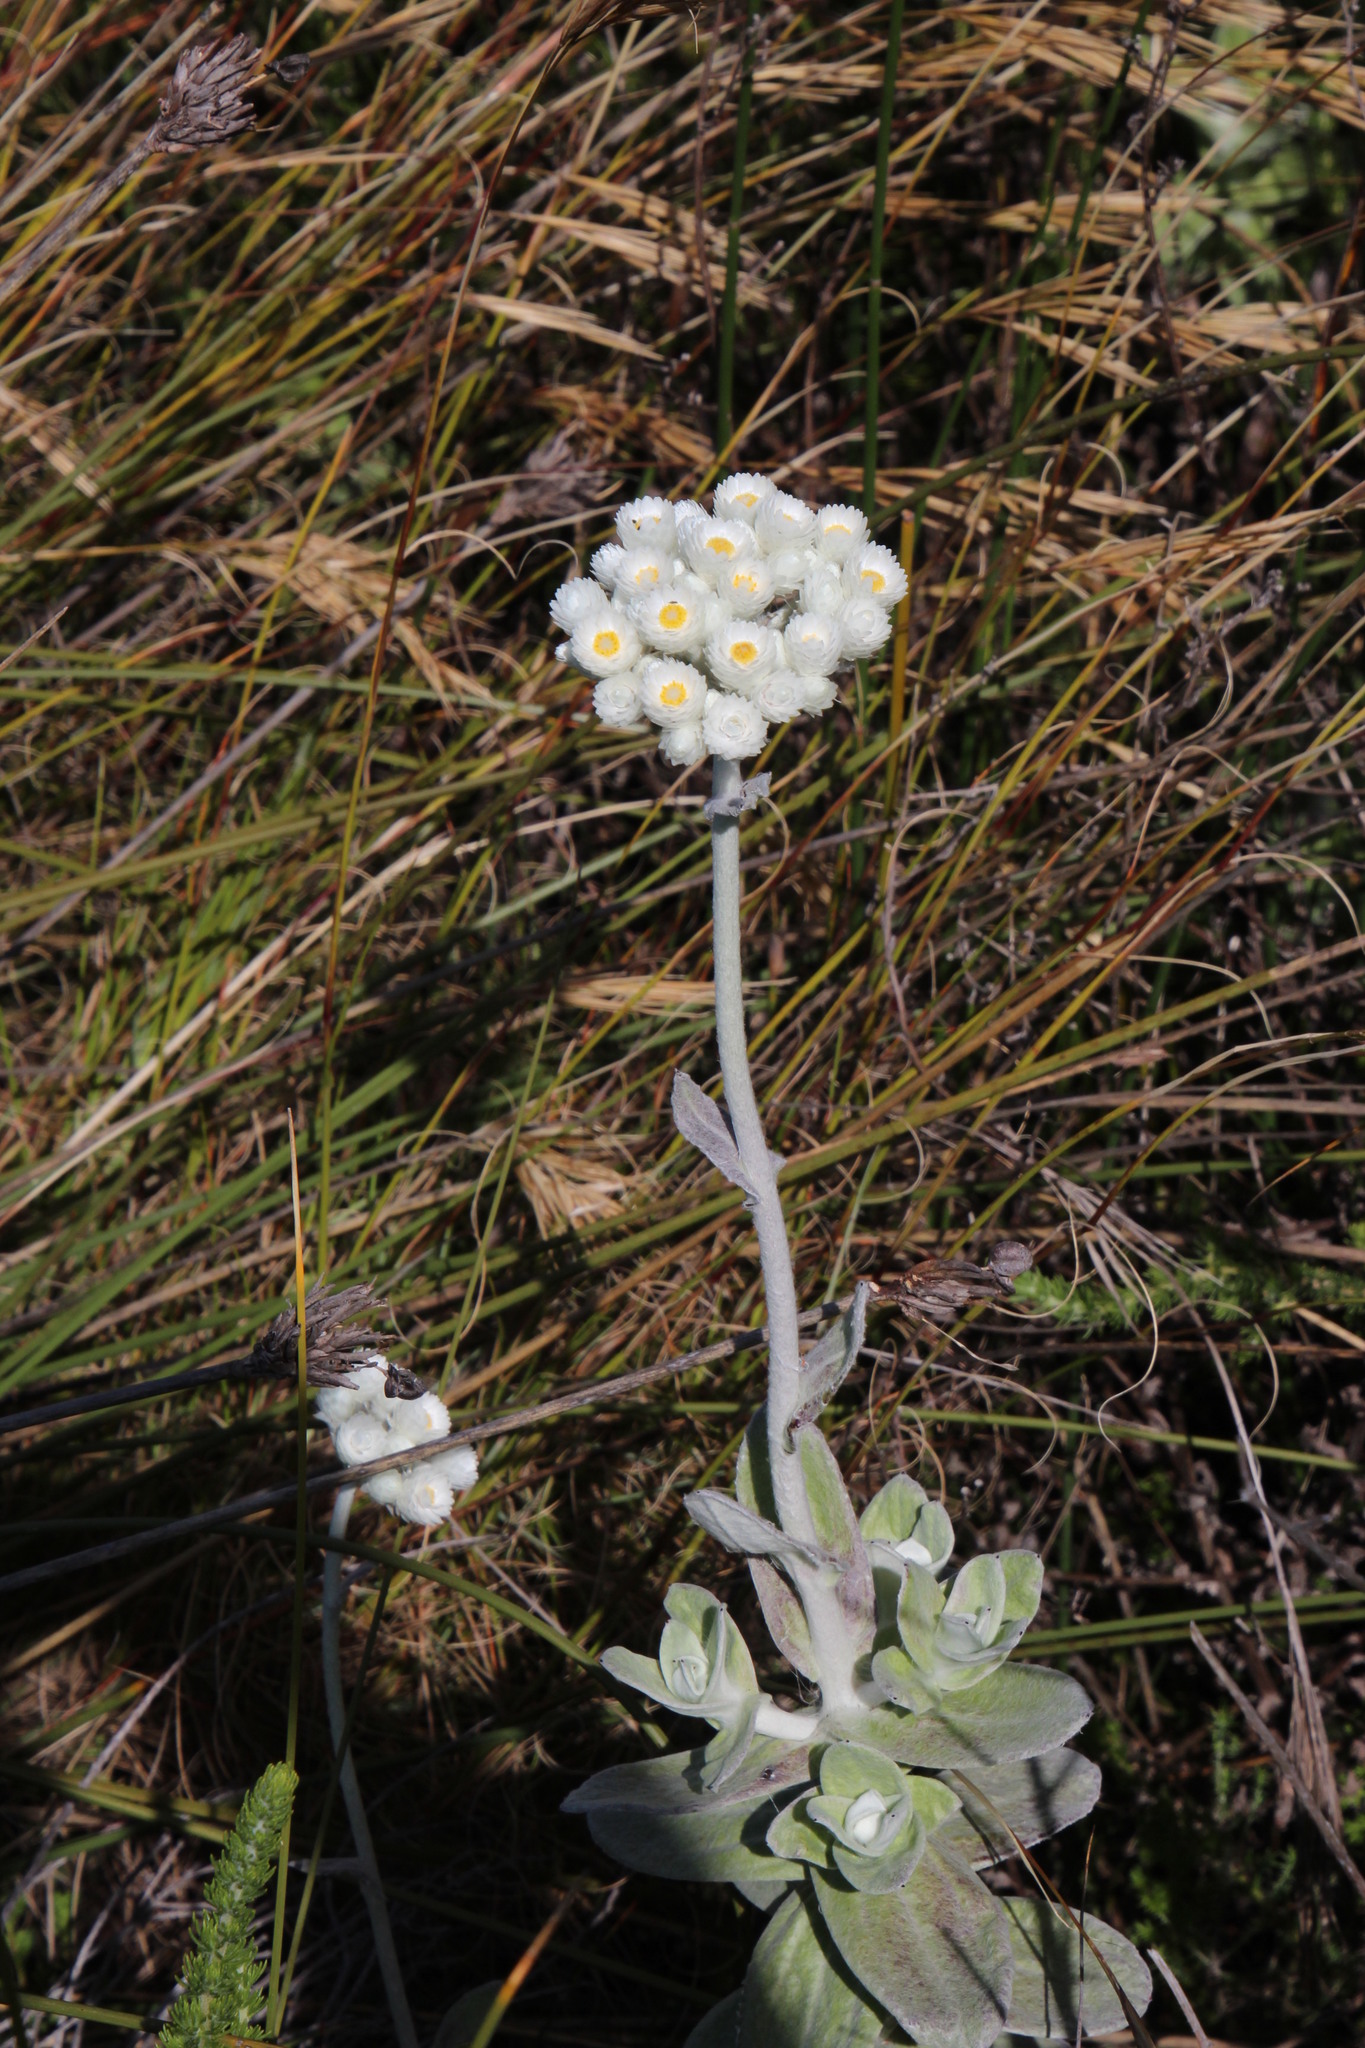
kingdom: Plantae
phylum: Tracheophyta
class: Magnoliopsida
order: Asterales
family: Asteraceae
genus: Helichrysum
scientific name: Helichrysum fruticans
